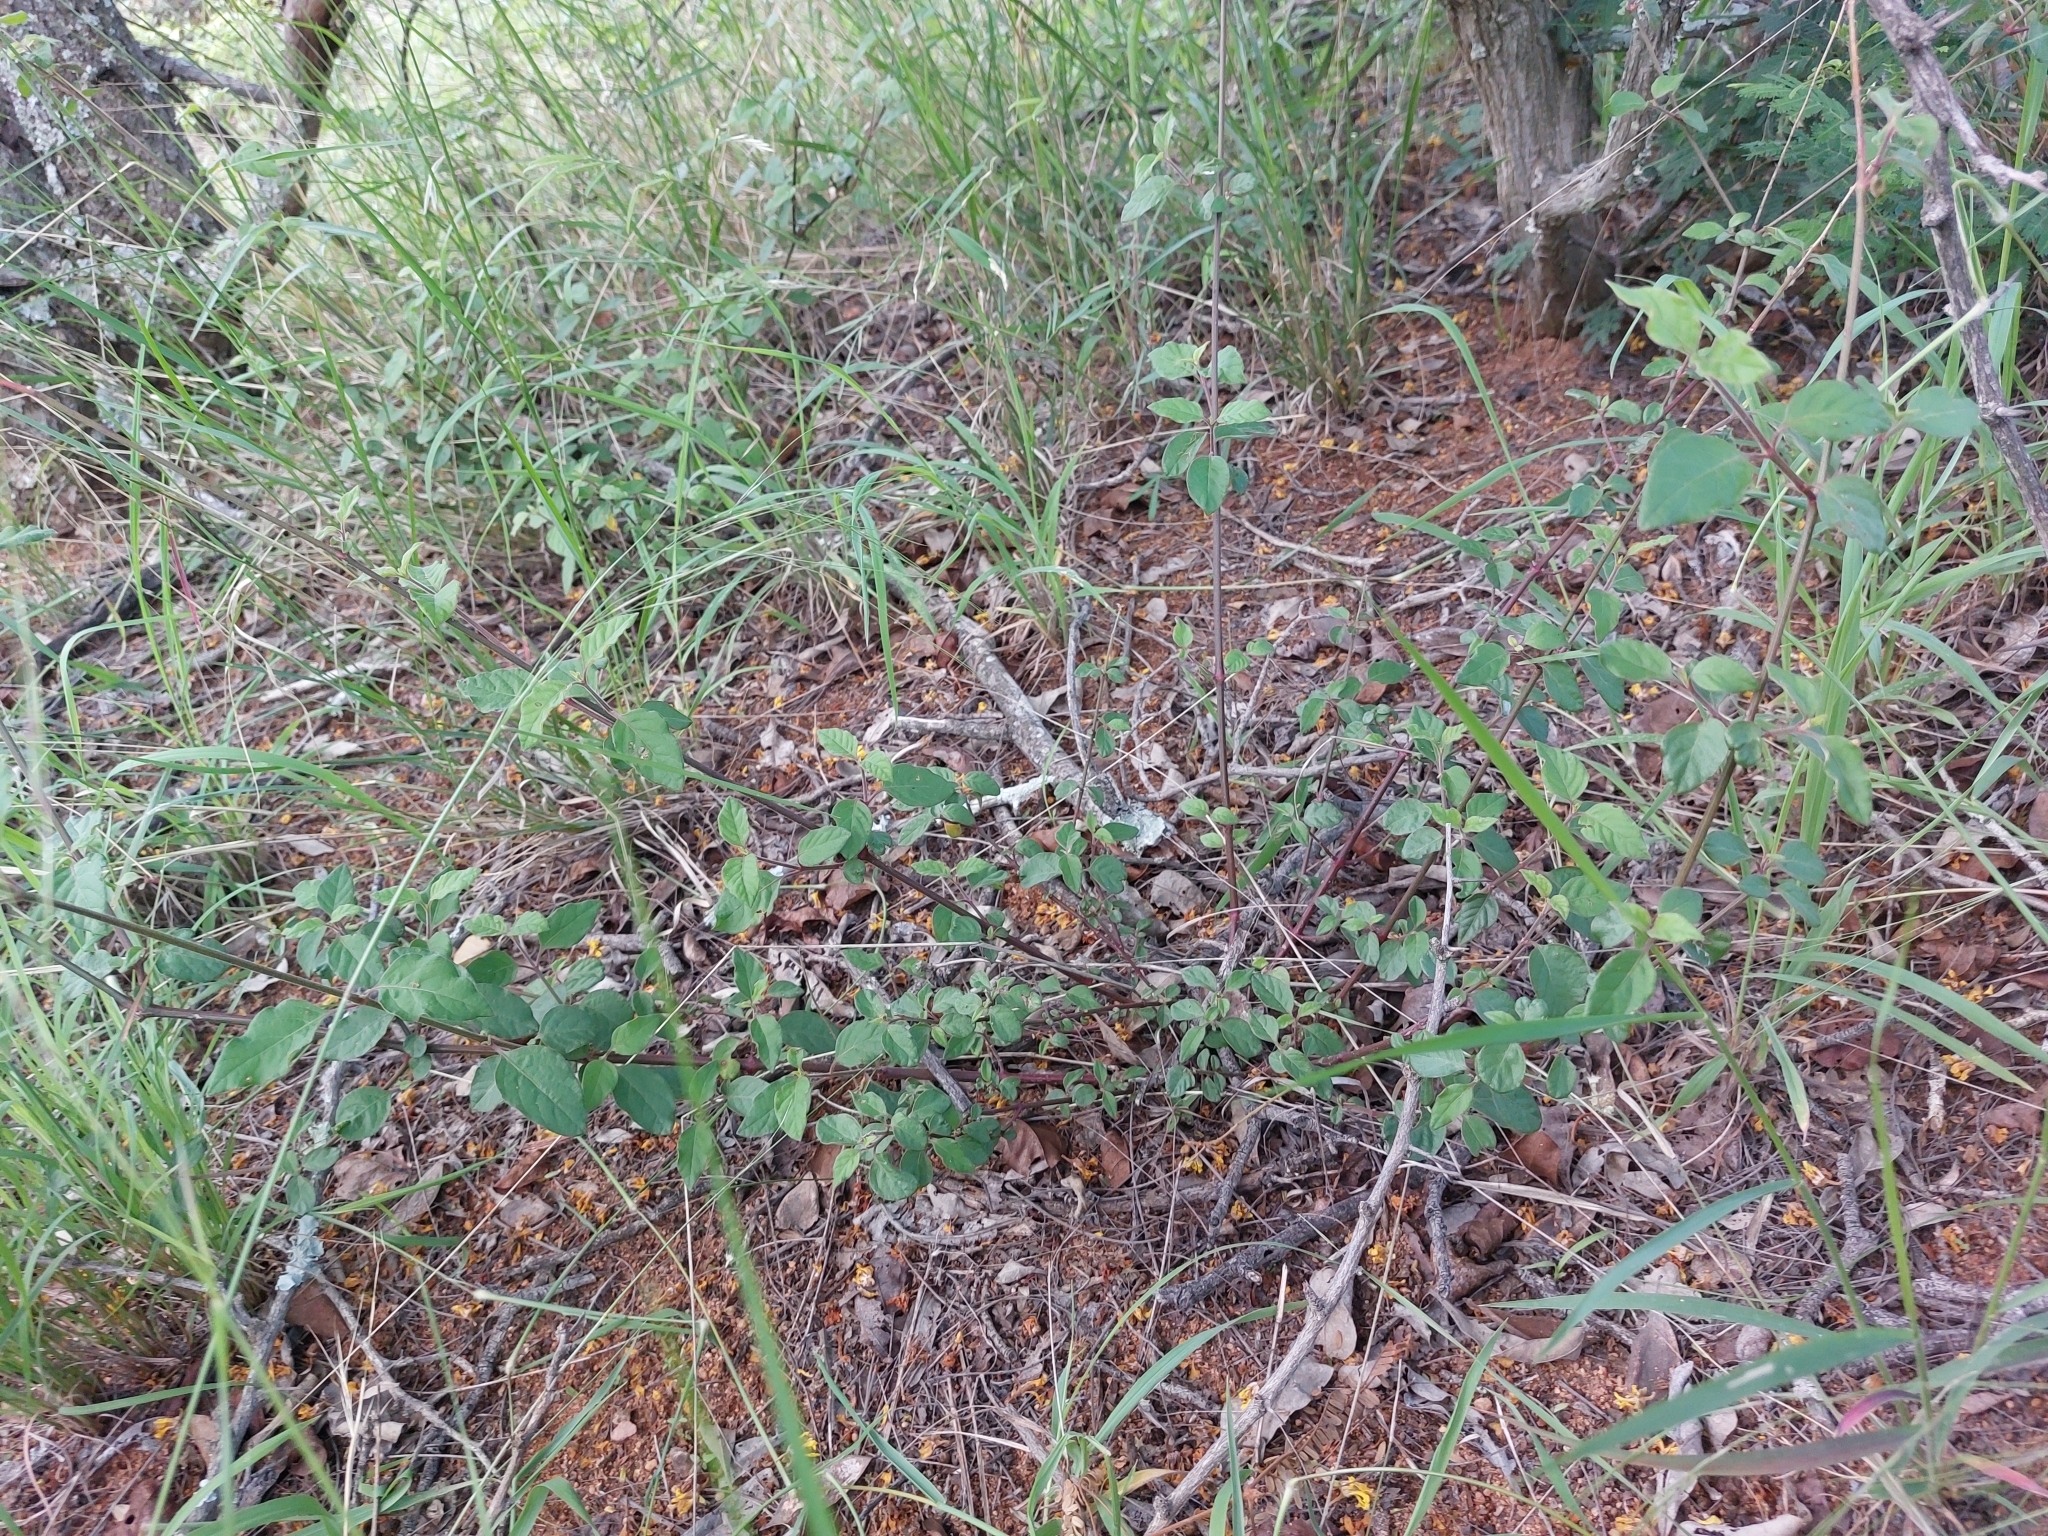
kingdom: Plantae
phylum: Tracheophyta
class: Magnoliopsida
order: Caryophyllales
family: Amaranthaceae
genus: Achyranthes
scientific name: Achyranthes aspera
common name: Devil's horsewhip
